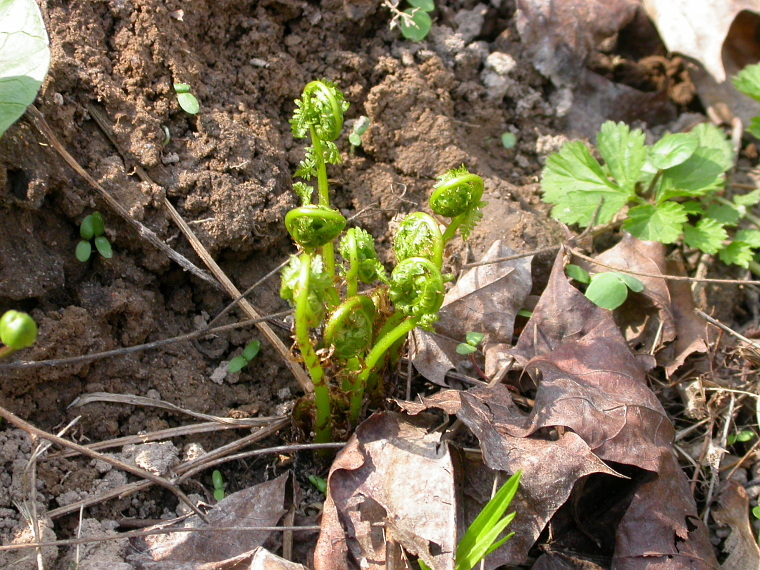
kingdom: Plantae
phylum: Tracheophyta
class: Polypodiopsida
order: Polypodiales
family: Dryopteridaceae
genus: Dryopteris
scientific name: Dryopteris filix-mas
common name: Male fern
